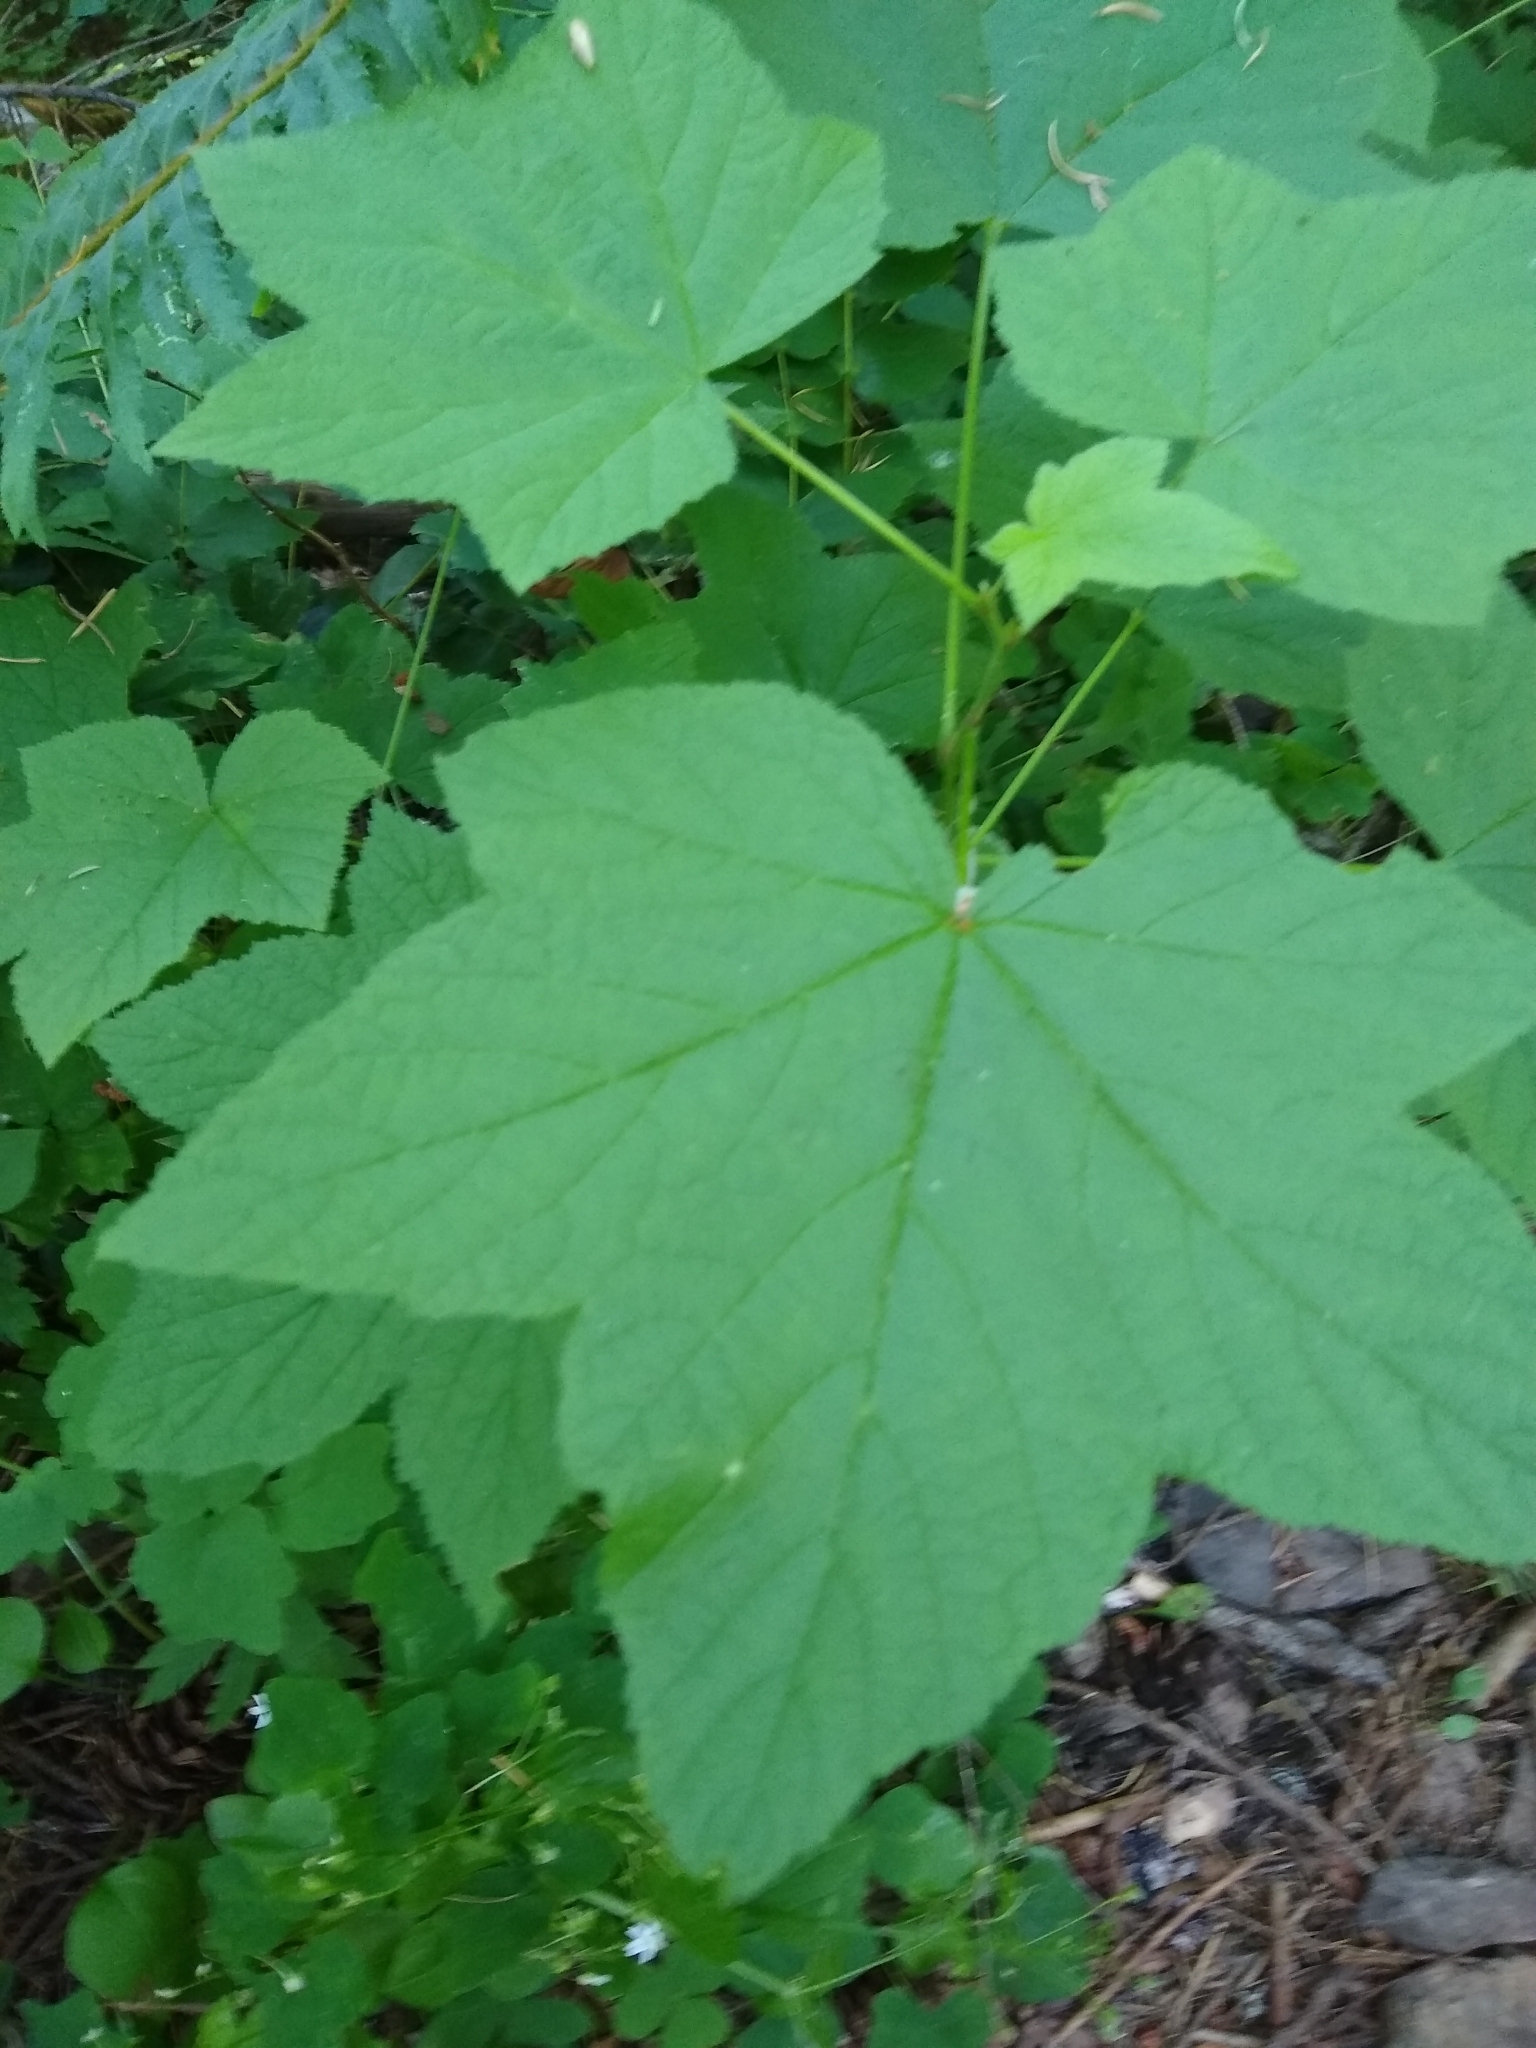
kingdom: Plantae
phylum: Tracheophyta
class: Magnoliopsida
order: Rosales
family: Rosaceae
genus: Rubus
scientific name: Rubus parviflorus
